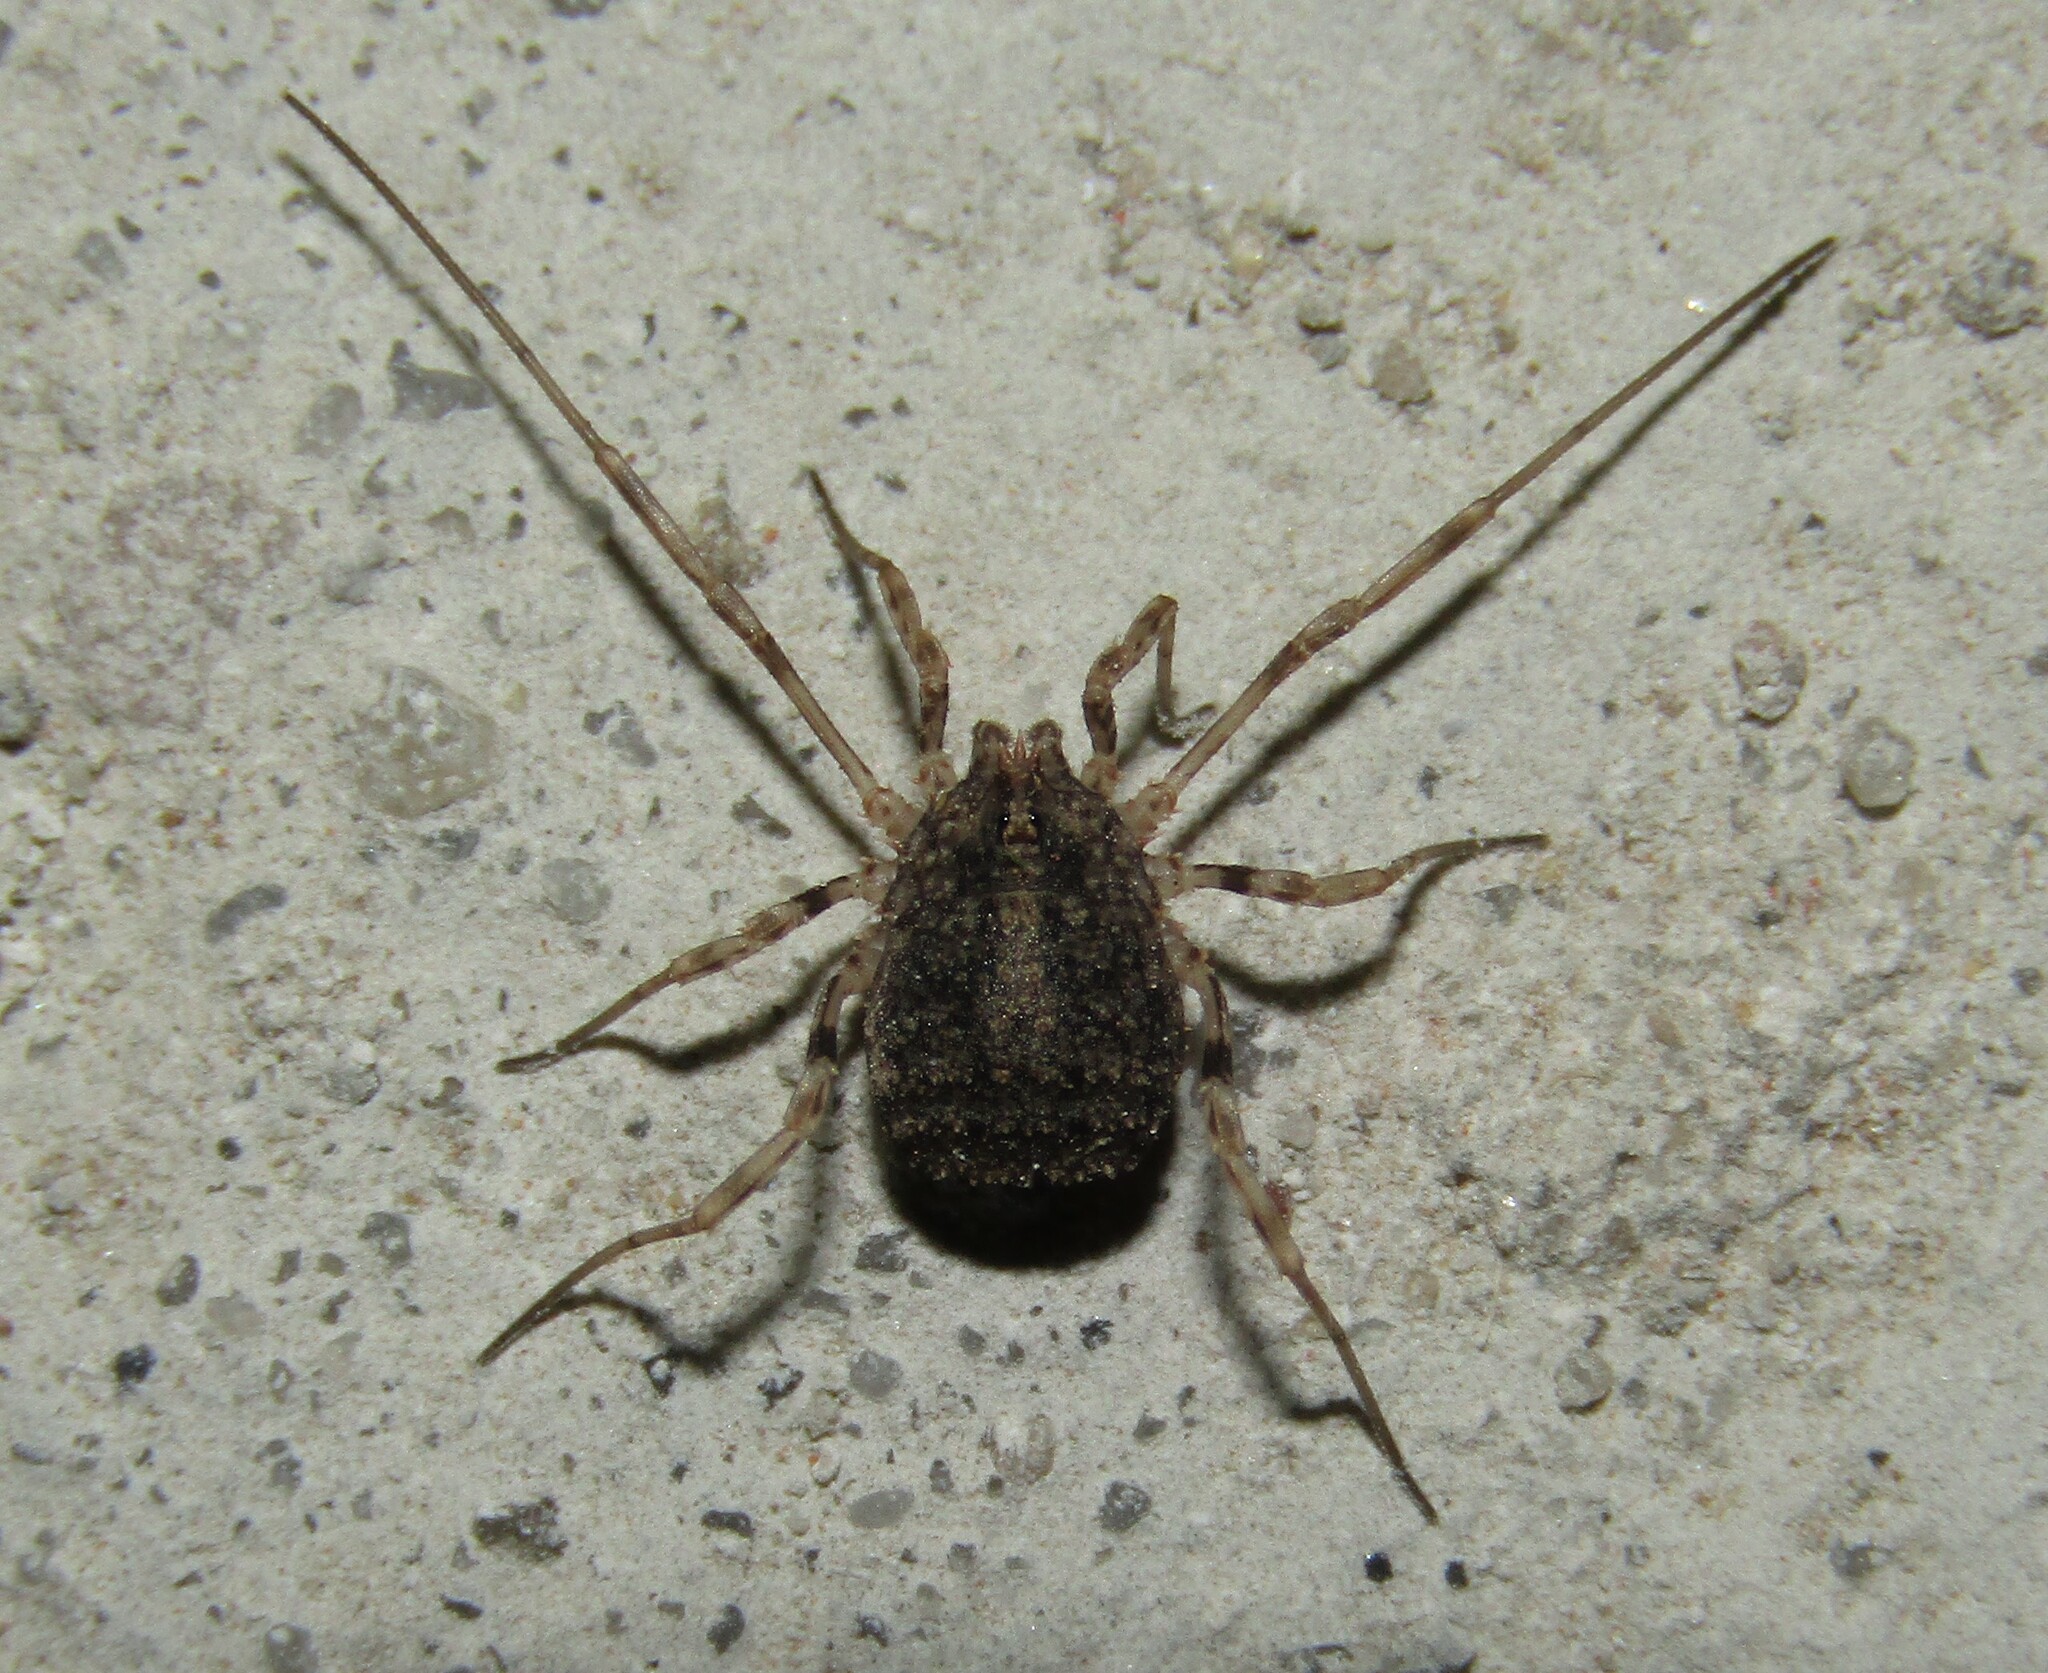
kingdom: Animalia
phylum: Arthropoda
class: Arachnida
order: Opiliones
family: Phalangiidae
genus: Odiellus
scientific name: Odiellus lendlii
